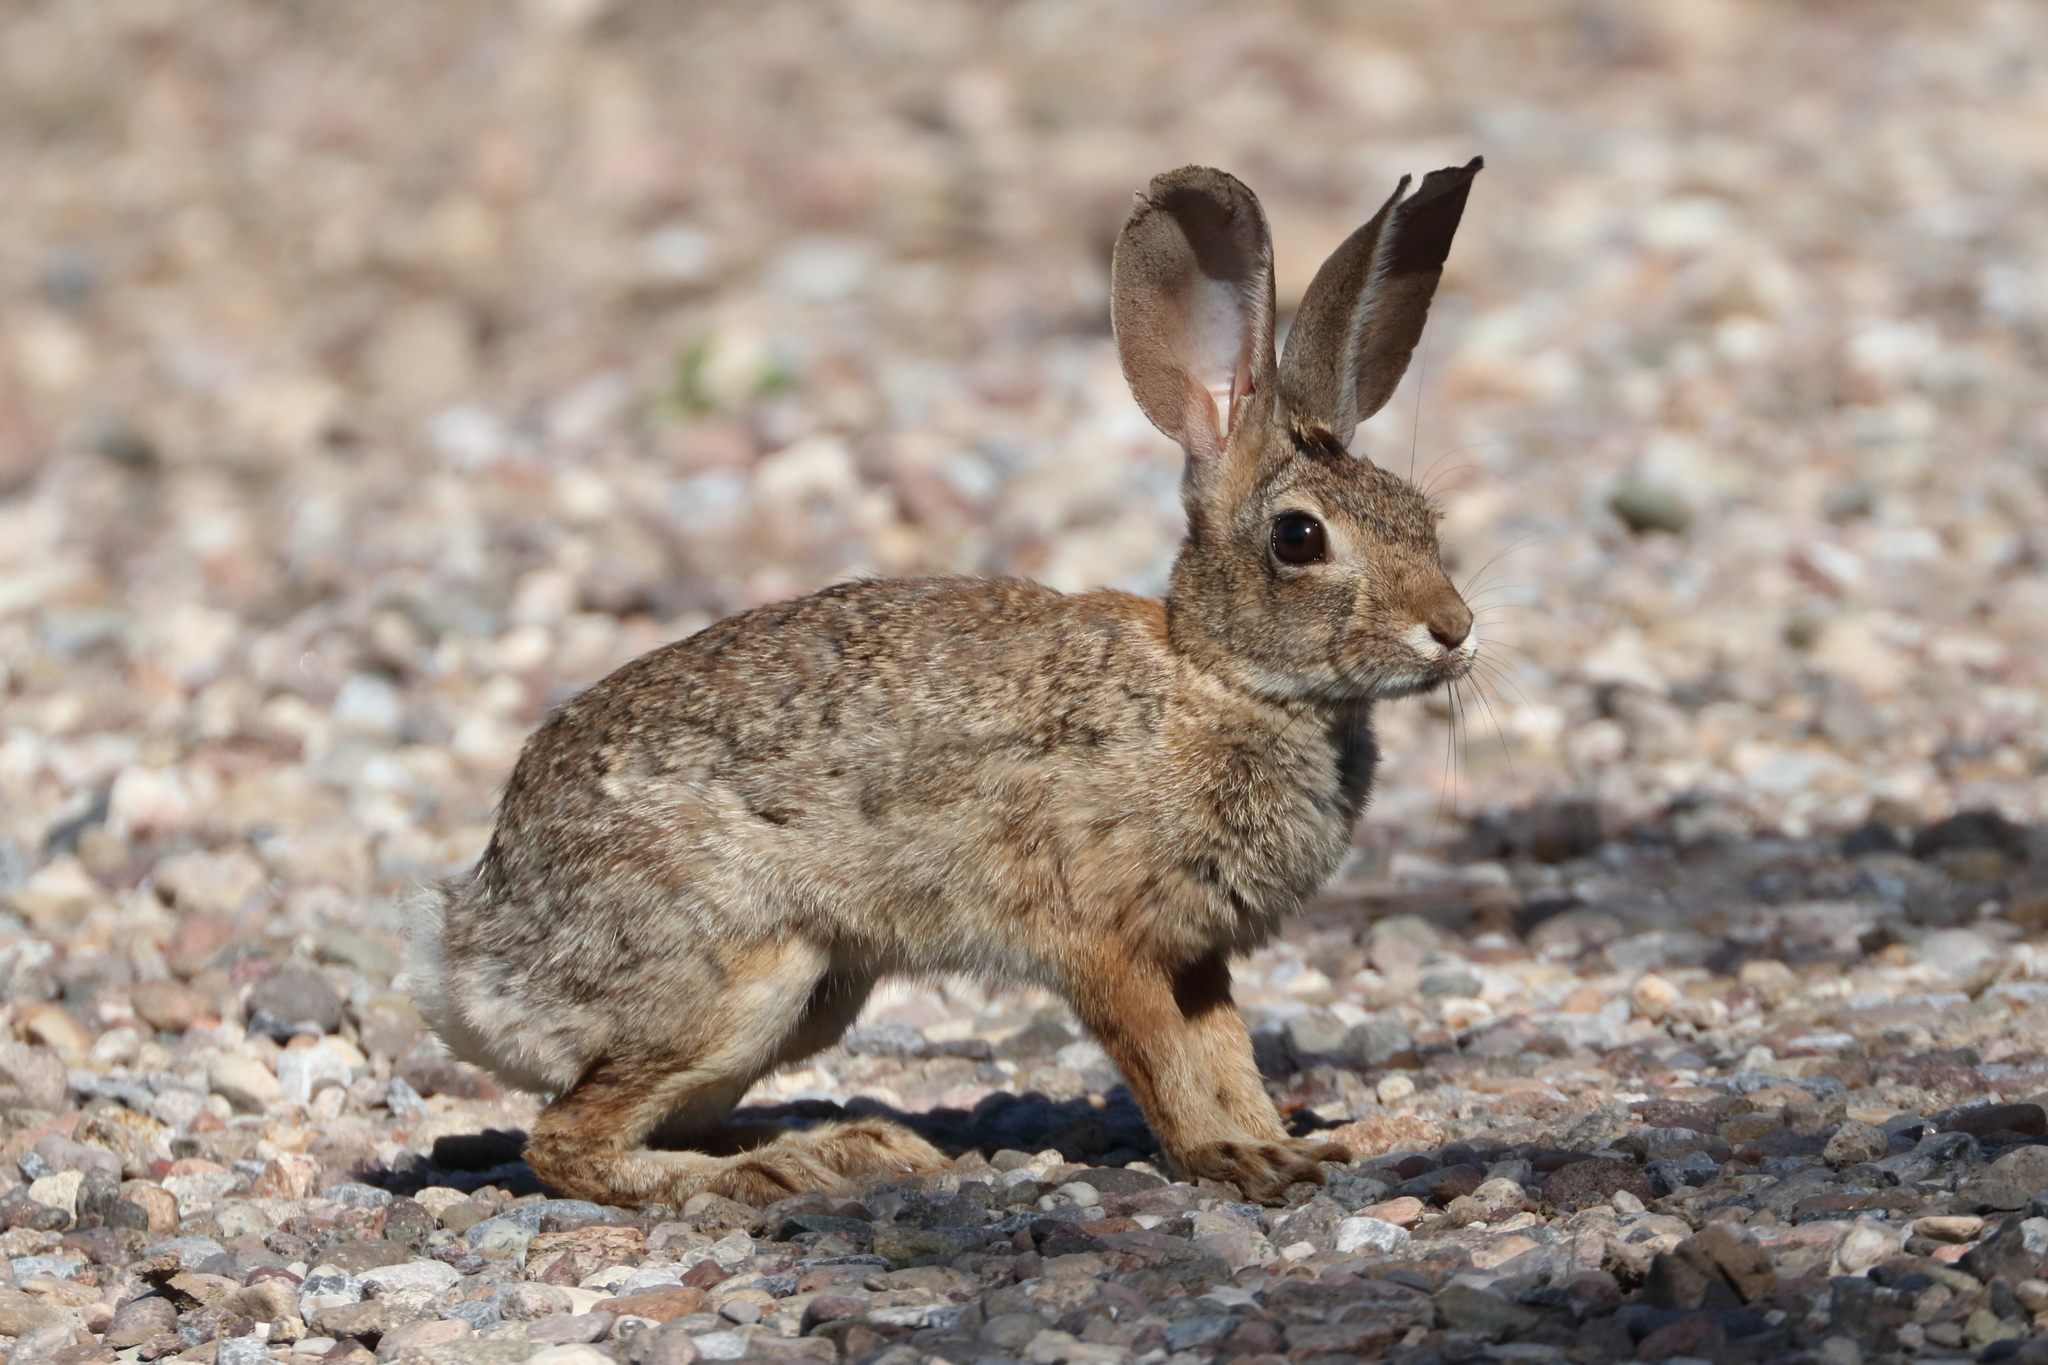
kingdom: Animalia
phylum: Chordata
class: Mammalia
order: Lagomorpha
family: Leporidae
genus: Sylvilagus
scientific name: Sylvilagus audubonii
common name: Desert cottontail
